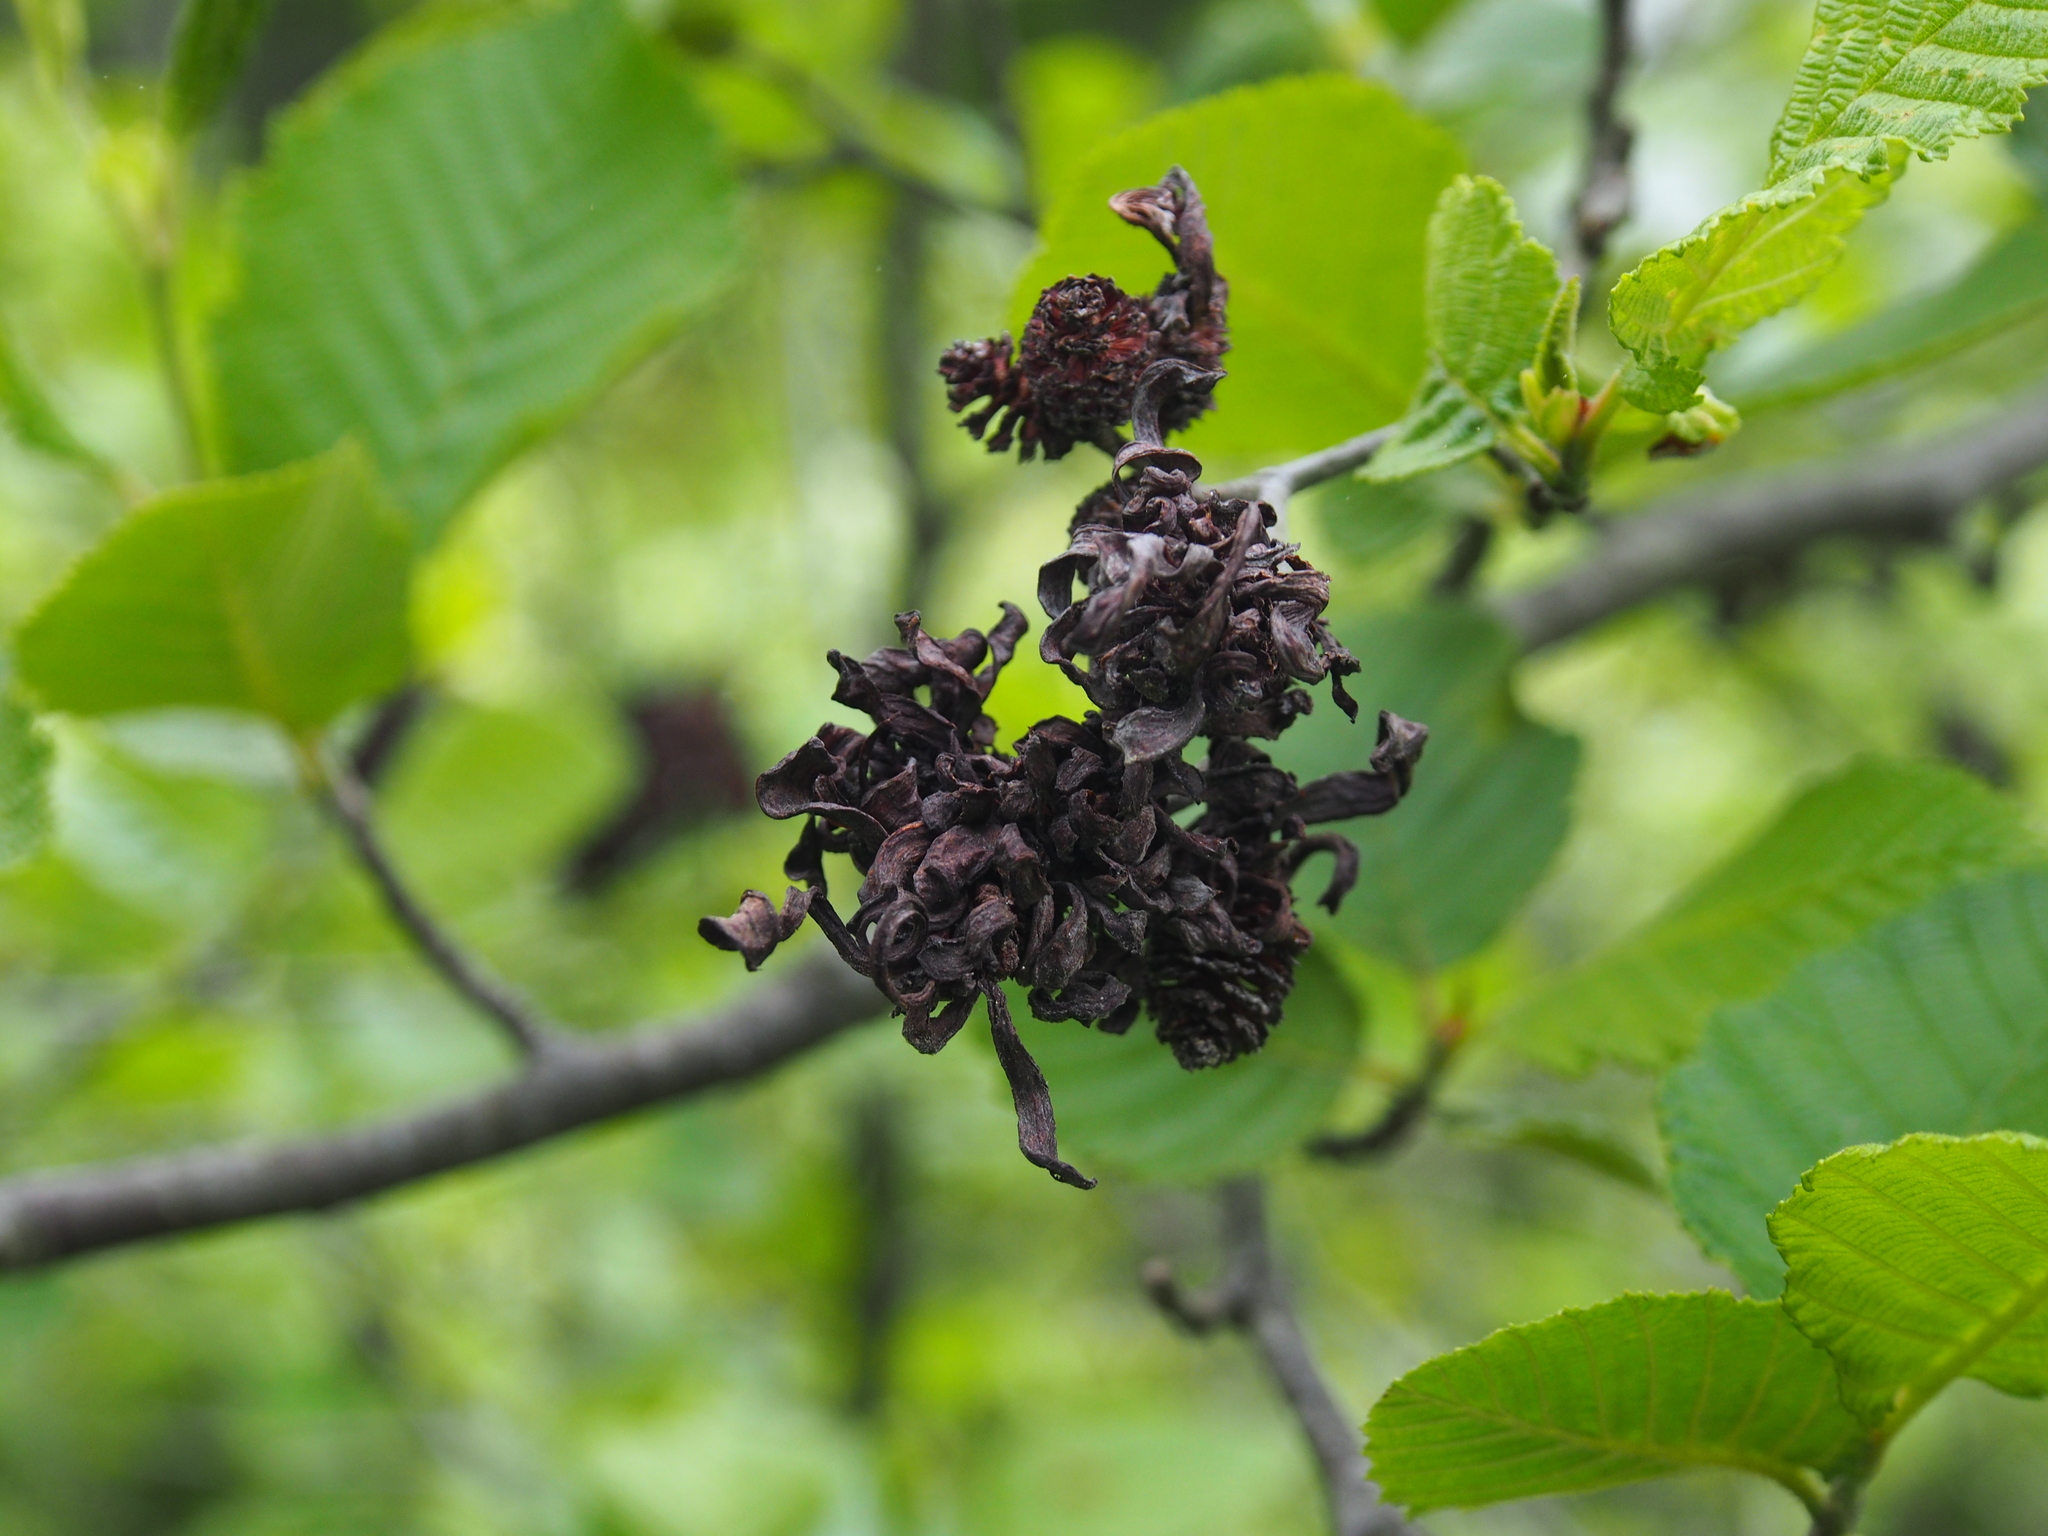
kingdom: Fungi
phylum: Ascomycota
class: Taphrinomycetes
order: Taphrinales
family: Taphrinaceae
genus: Taphrina
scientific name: Taphrina robinsoniana
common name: Eastern american alder tongue gall fungus
